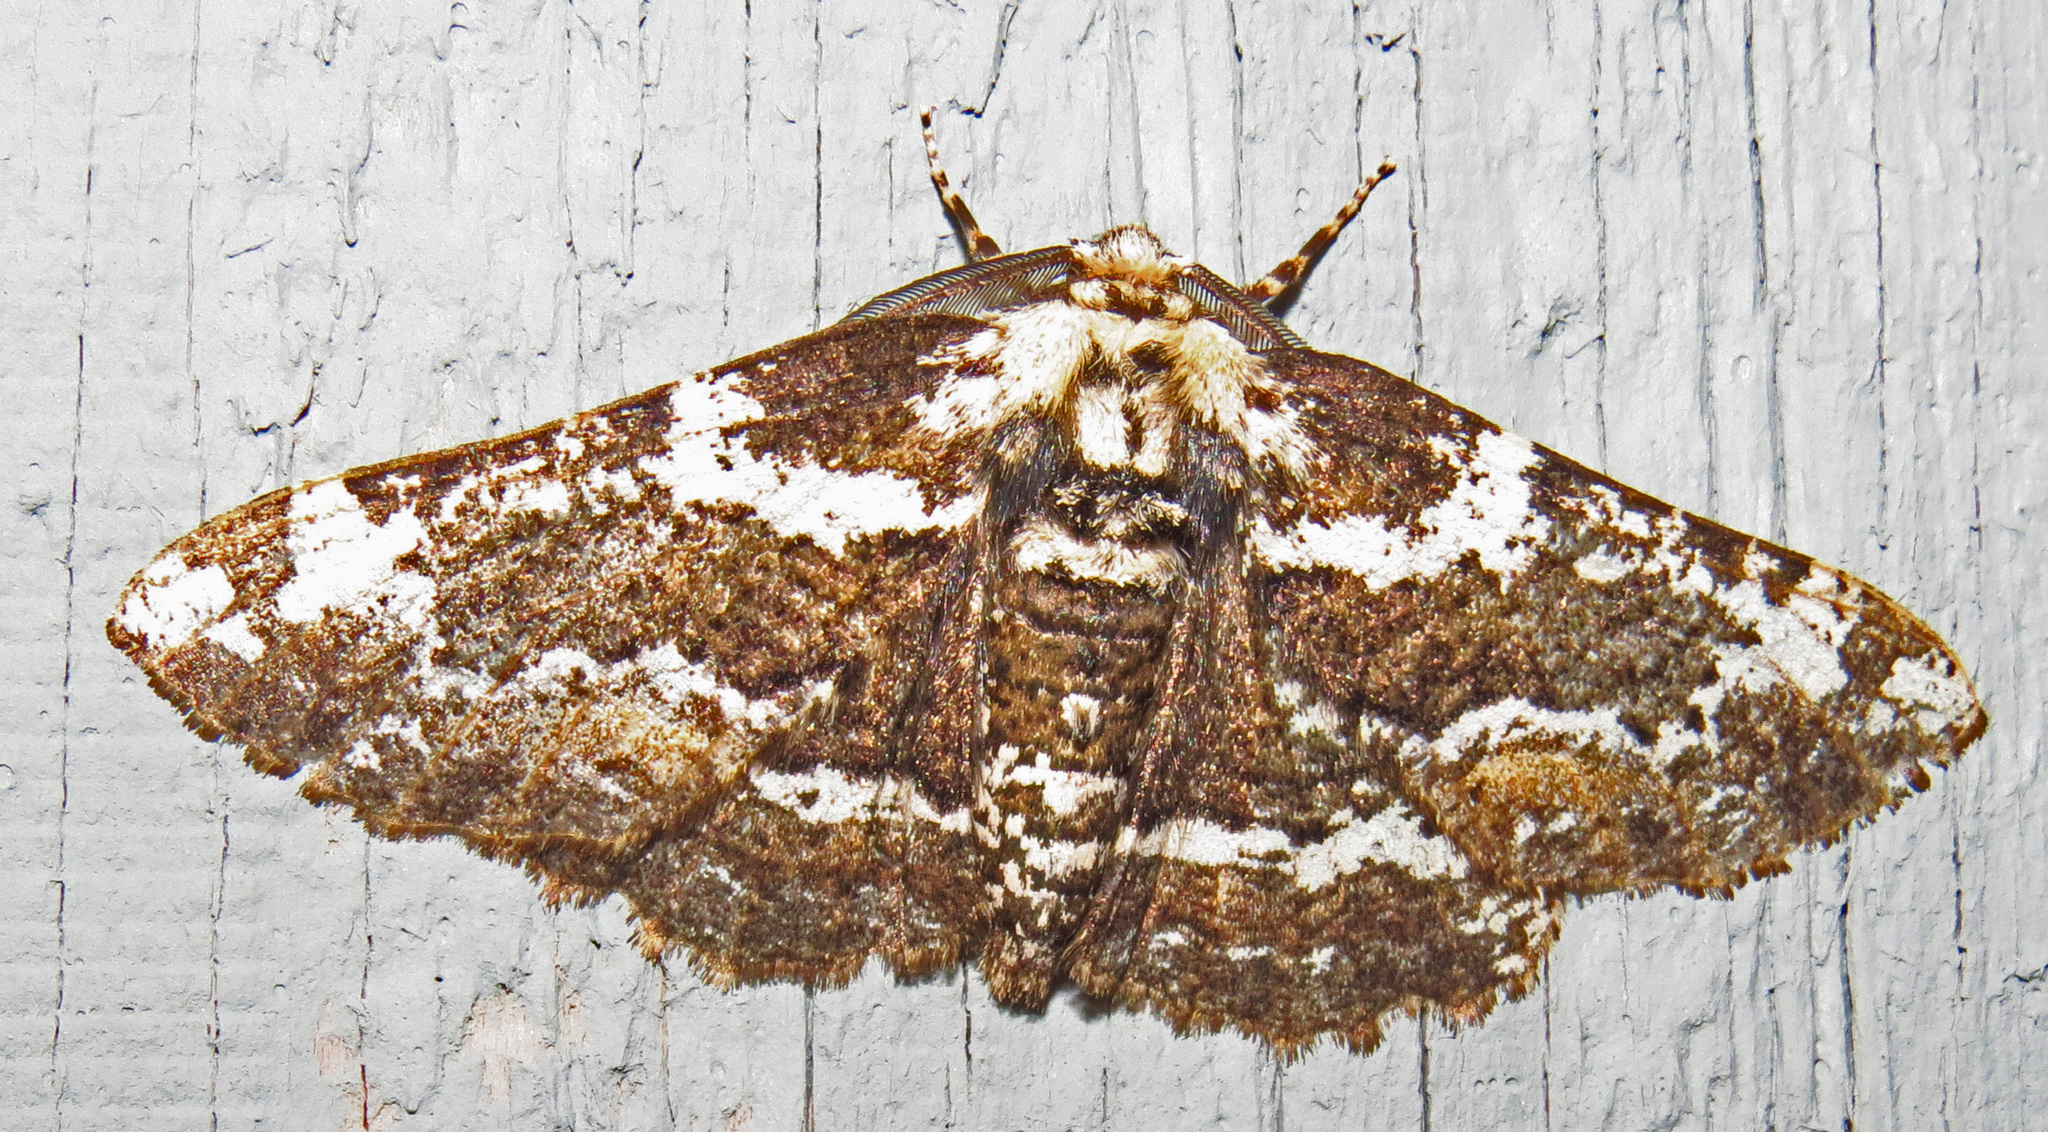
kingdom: Animalia
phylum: Arthropoda
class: Insecta
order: Lepidoptera
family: Geometridae
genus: Phaeoura
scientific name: Phaeoura quernaria
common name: Oak beauty
